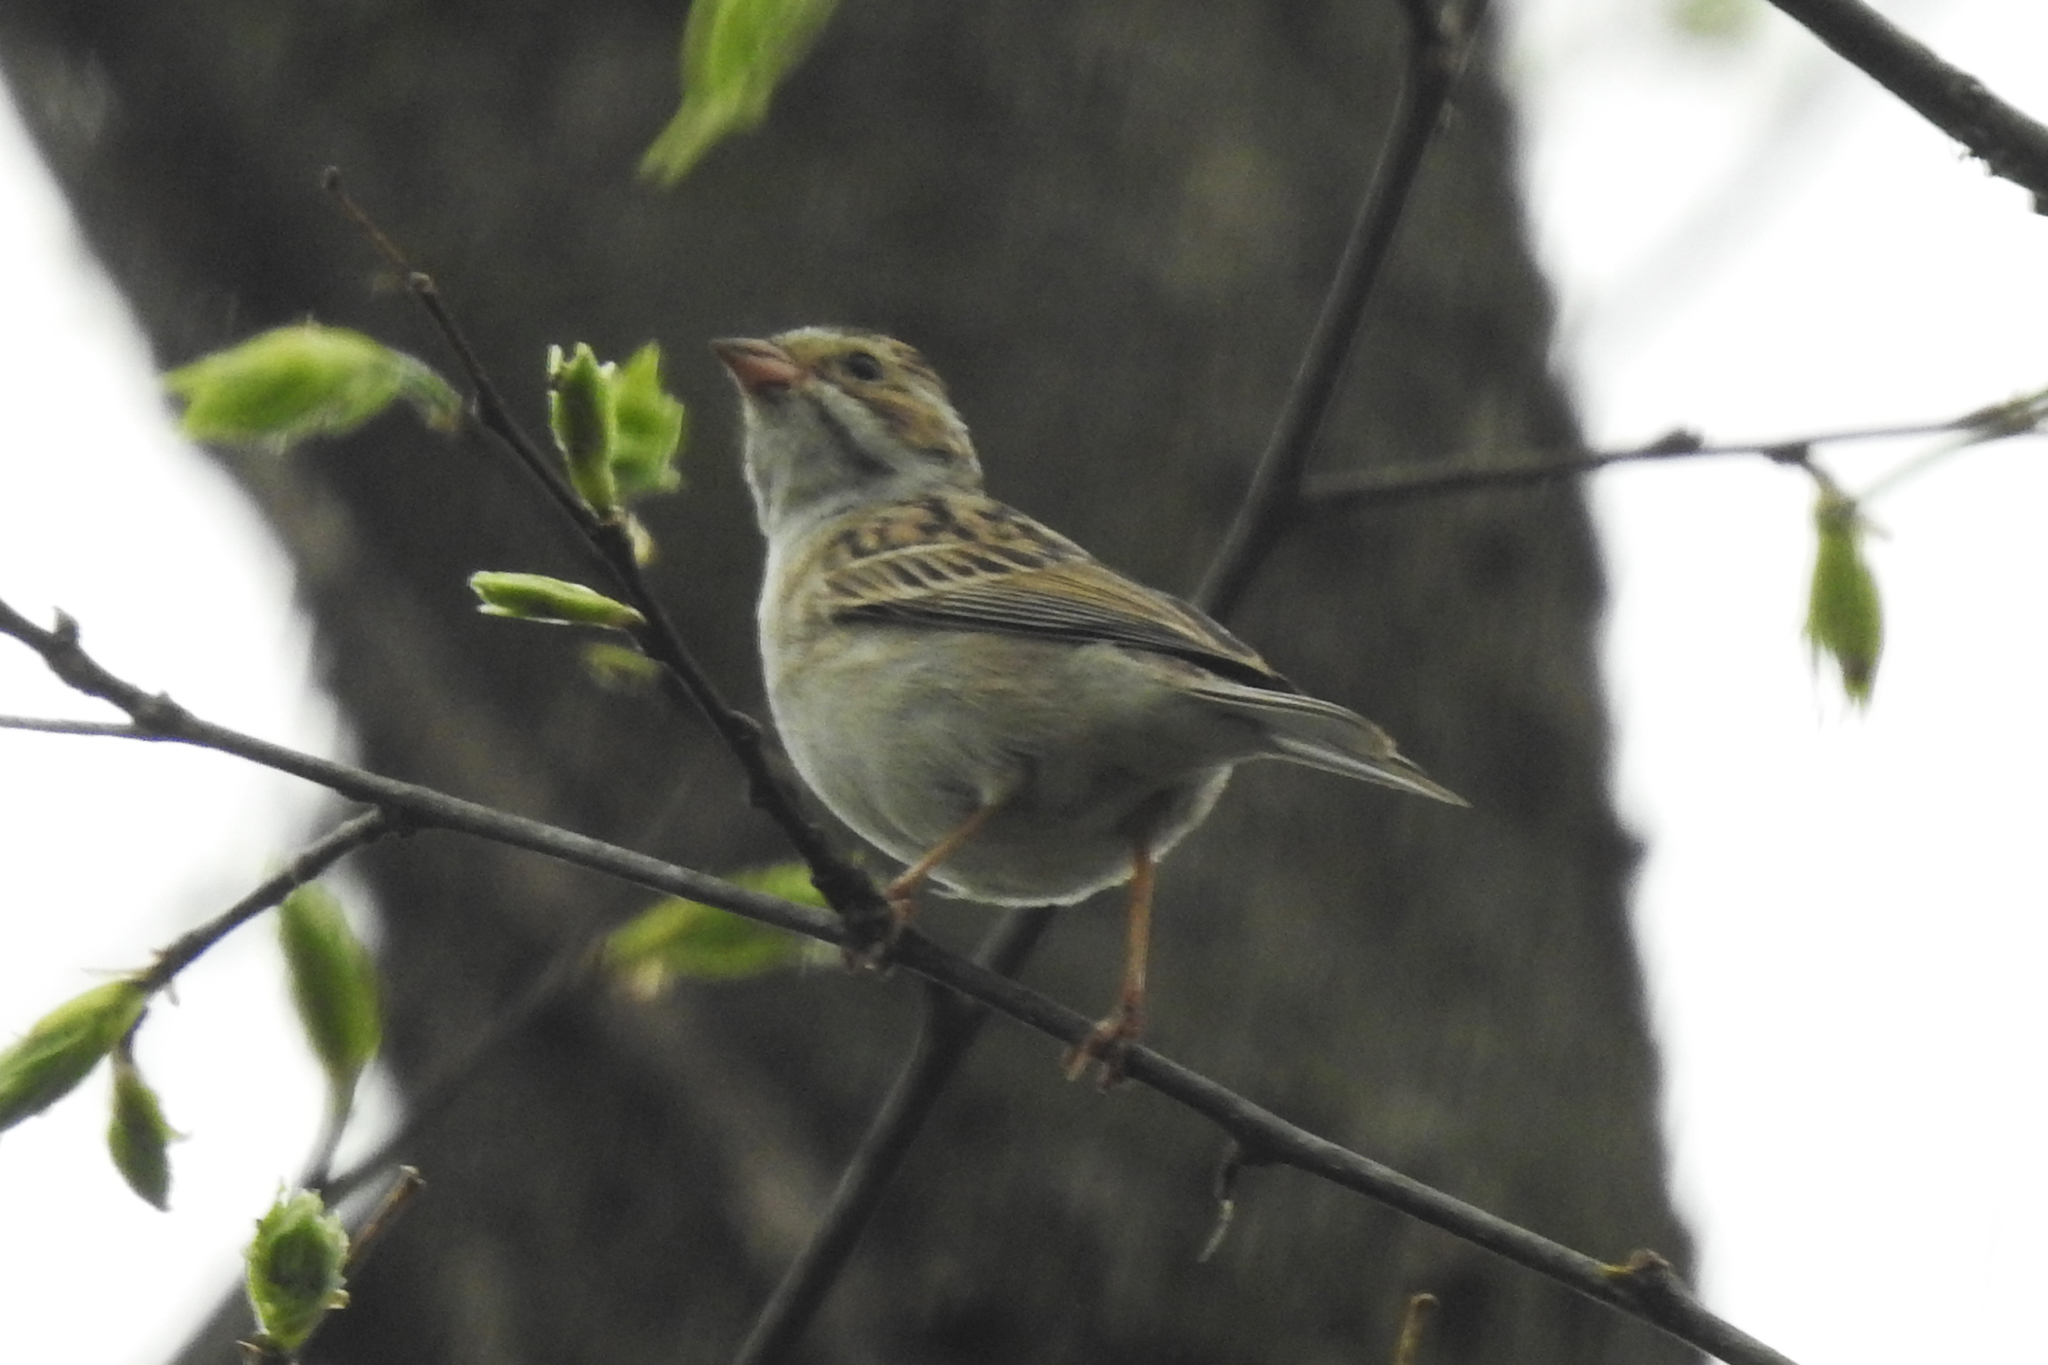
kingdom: Animalia
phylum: Chordata
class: Aves
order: Passeriformes
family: Passerellidae
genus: Spizella
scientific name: Spizella pallida
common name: Clay-colored sparrow
